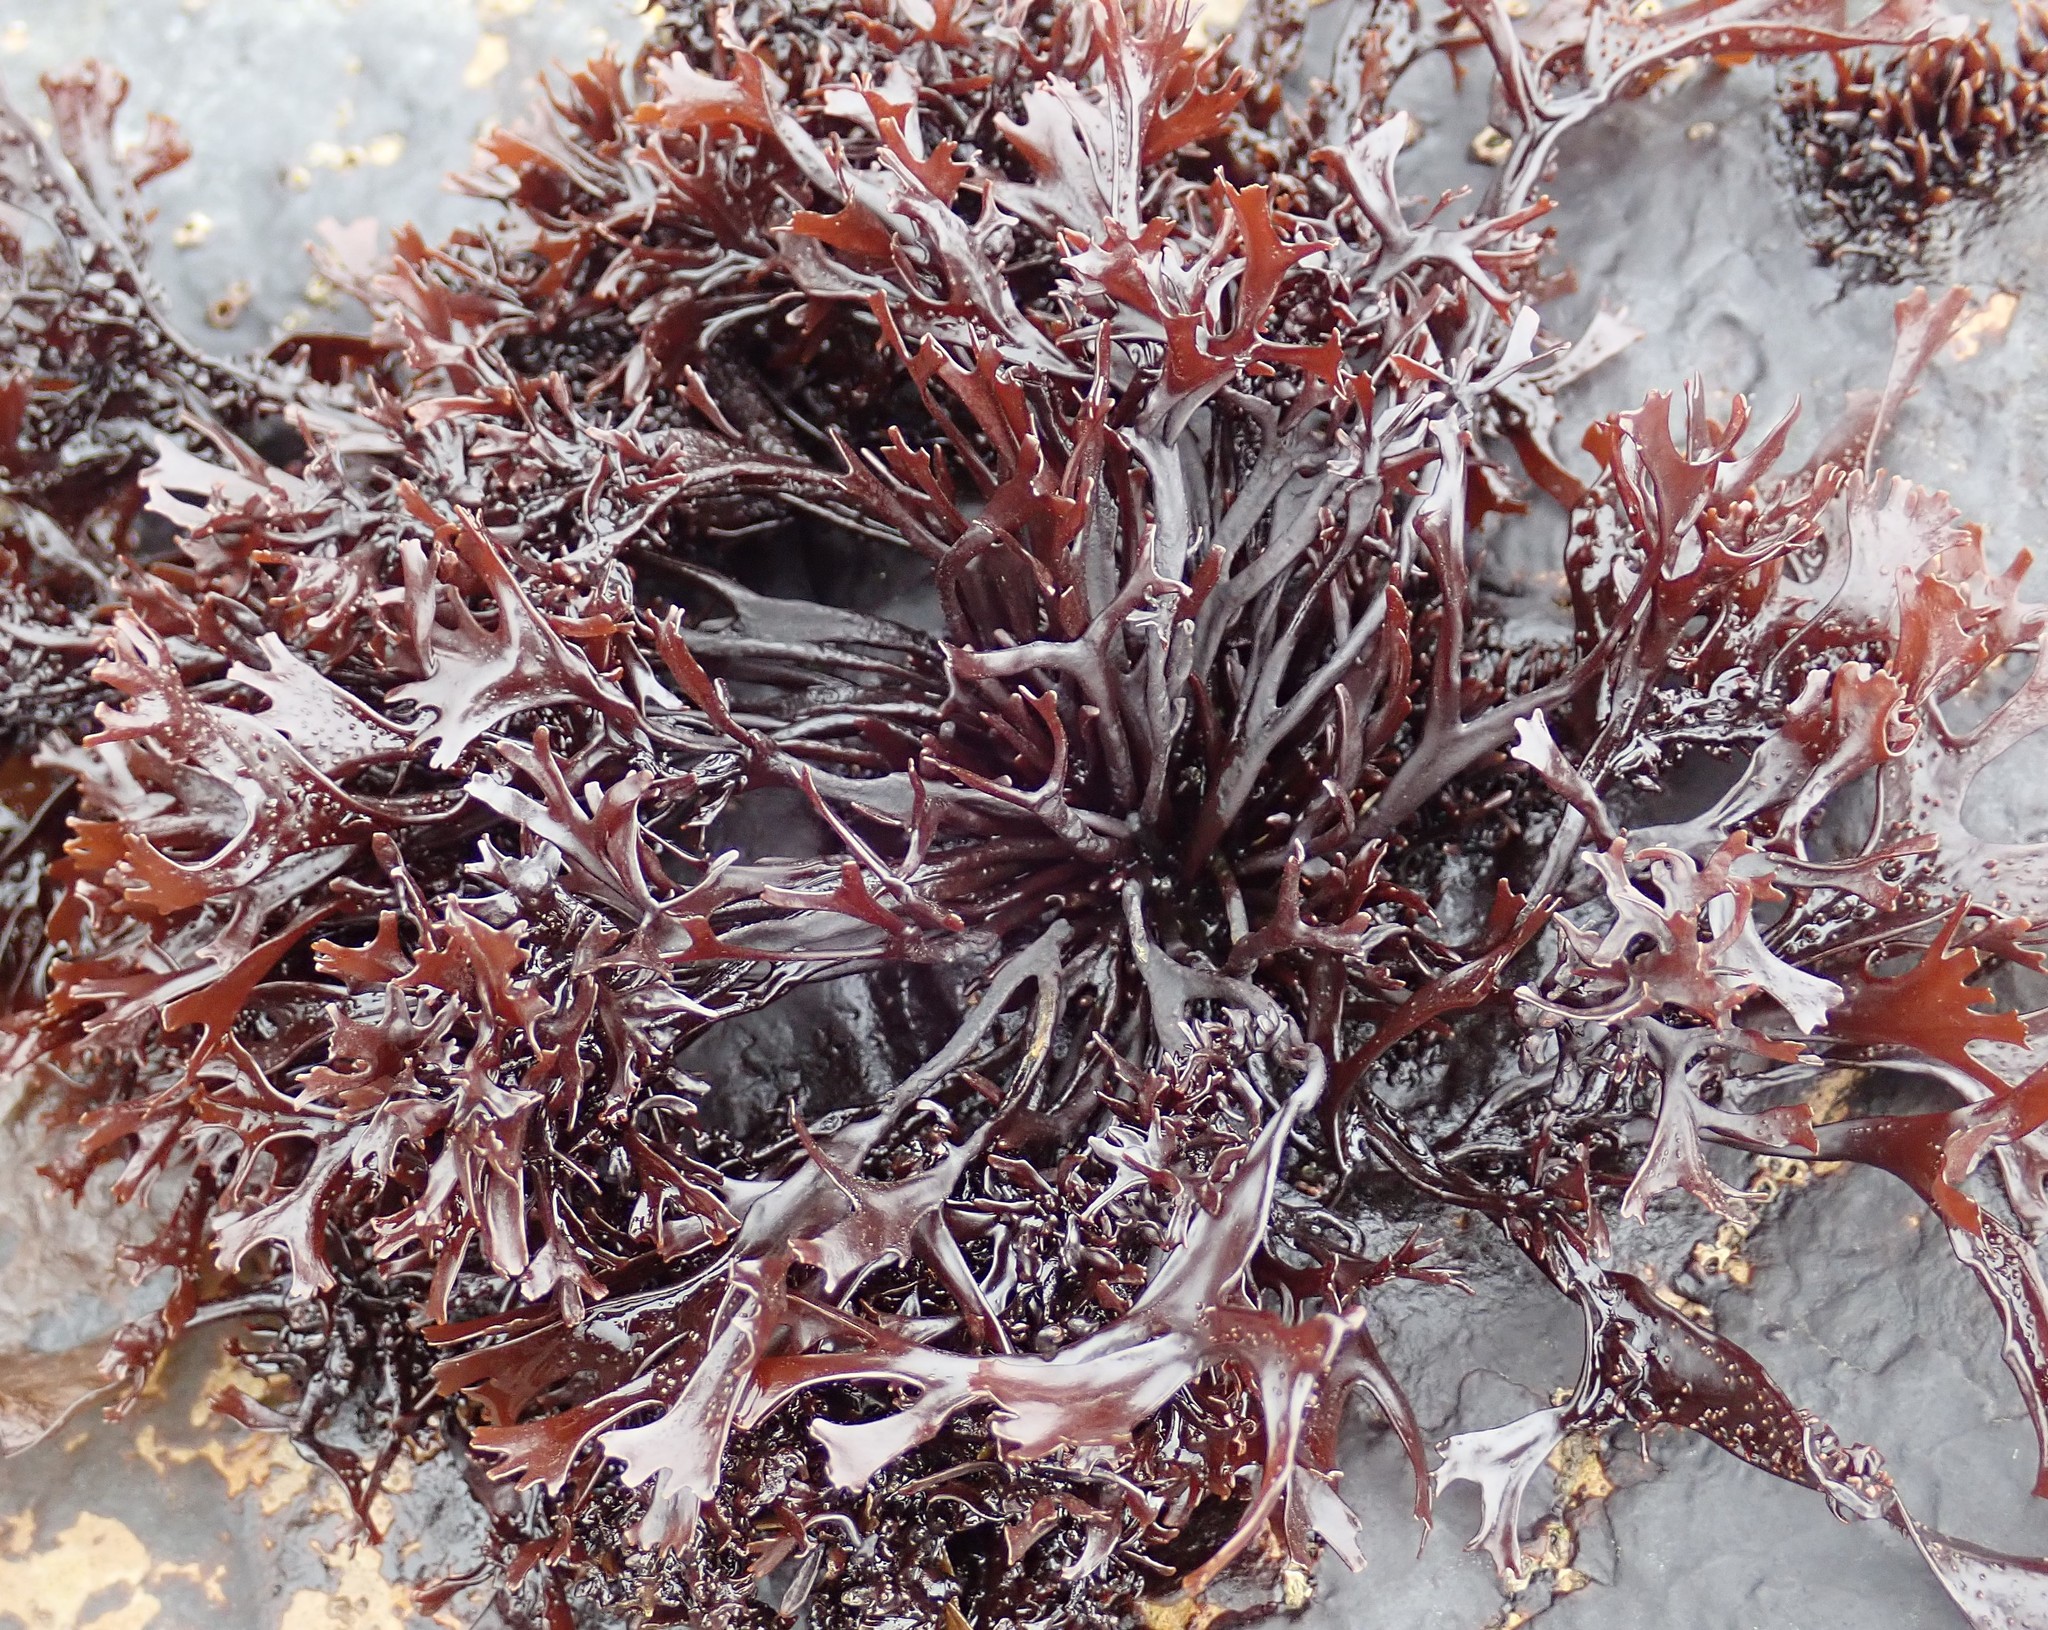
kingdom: Plantae
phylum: Rhodophyta
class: Florideophyceae
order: Gigartinales
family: Phyllophoraceae
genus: Mastocarpus
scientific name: Mastocarpus jardinii
